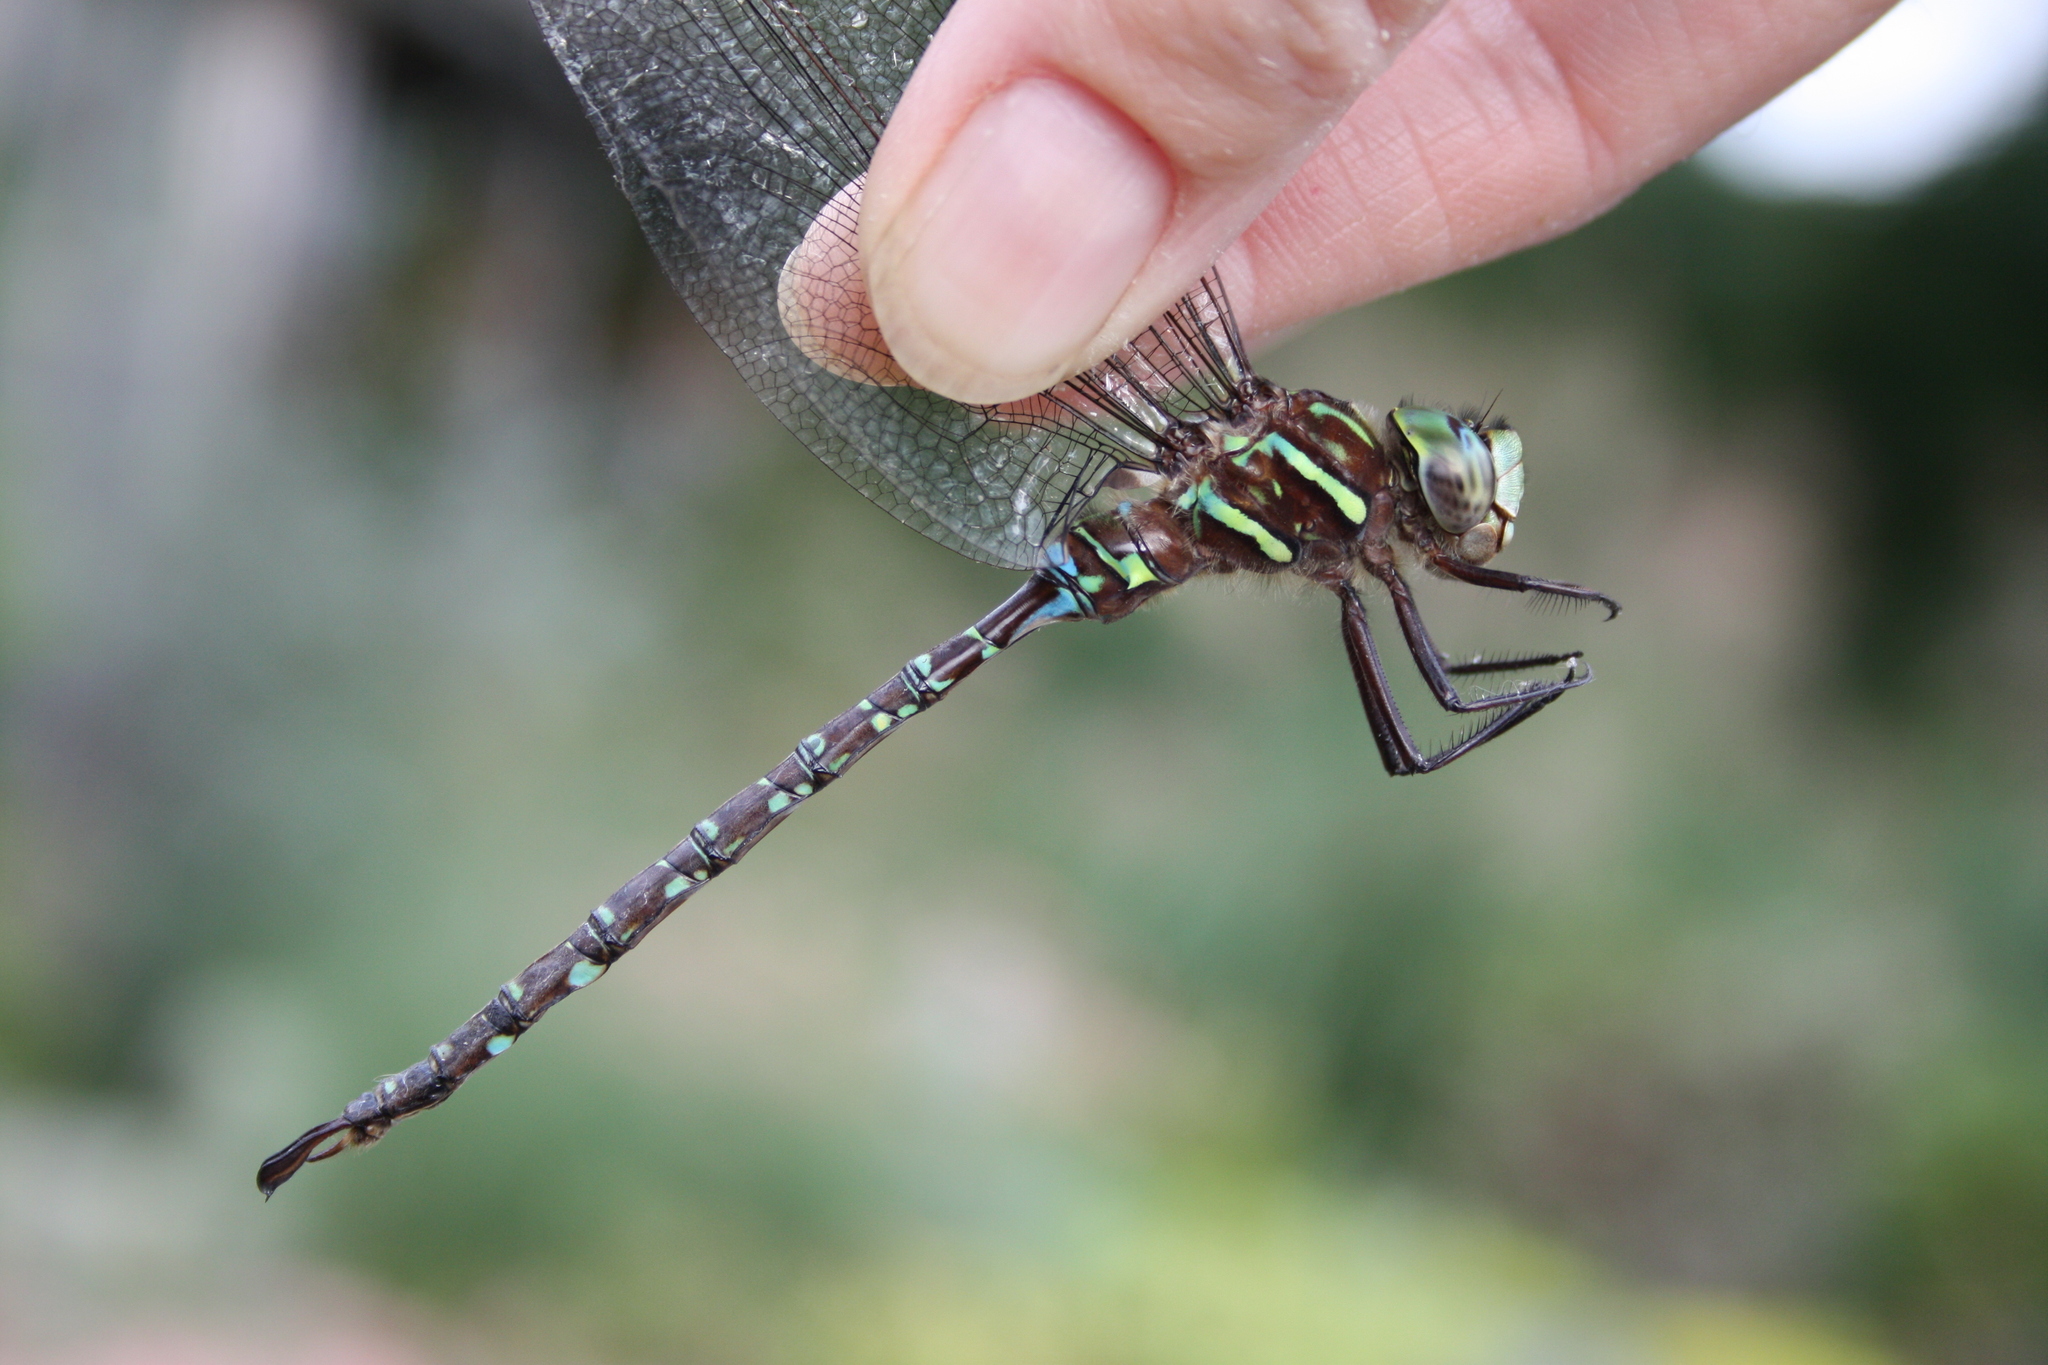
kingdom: Animalia
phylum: Arthropoda
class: Insecta
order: Odonata
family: Aeshnidae
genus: Aeshna
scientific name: Aeshna umbrosa
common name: Shadow darner
